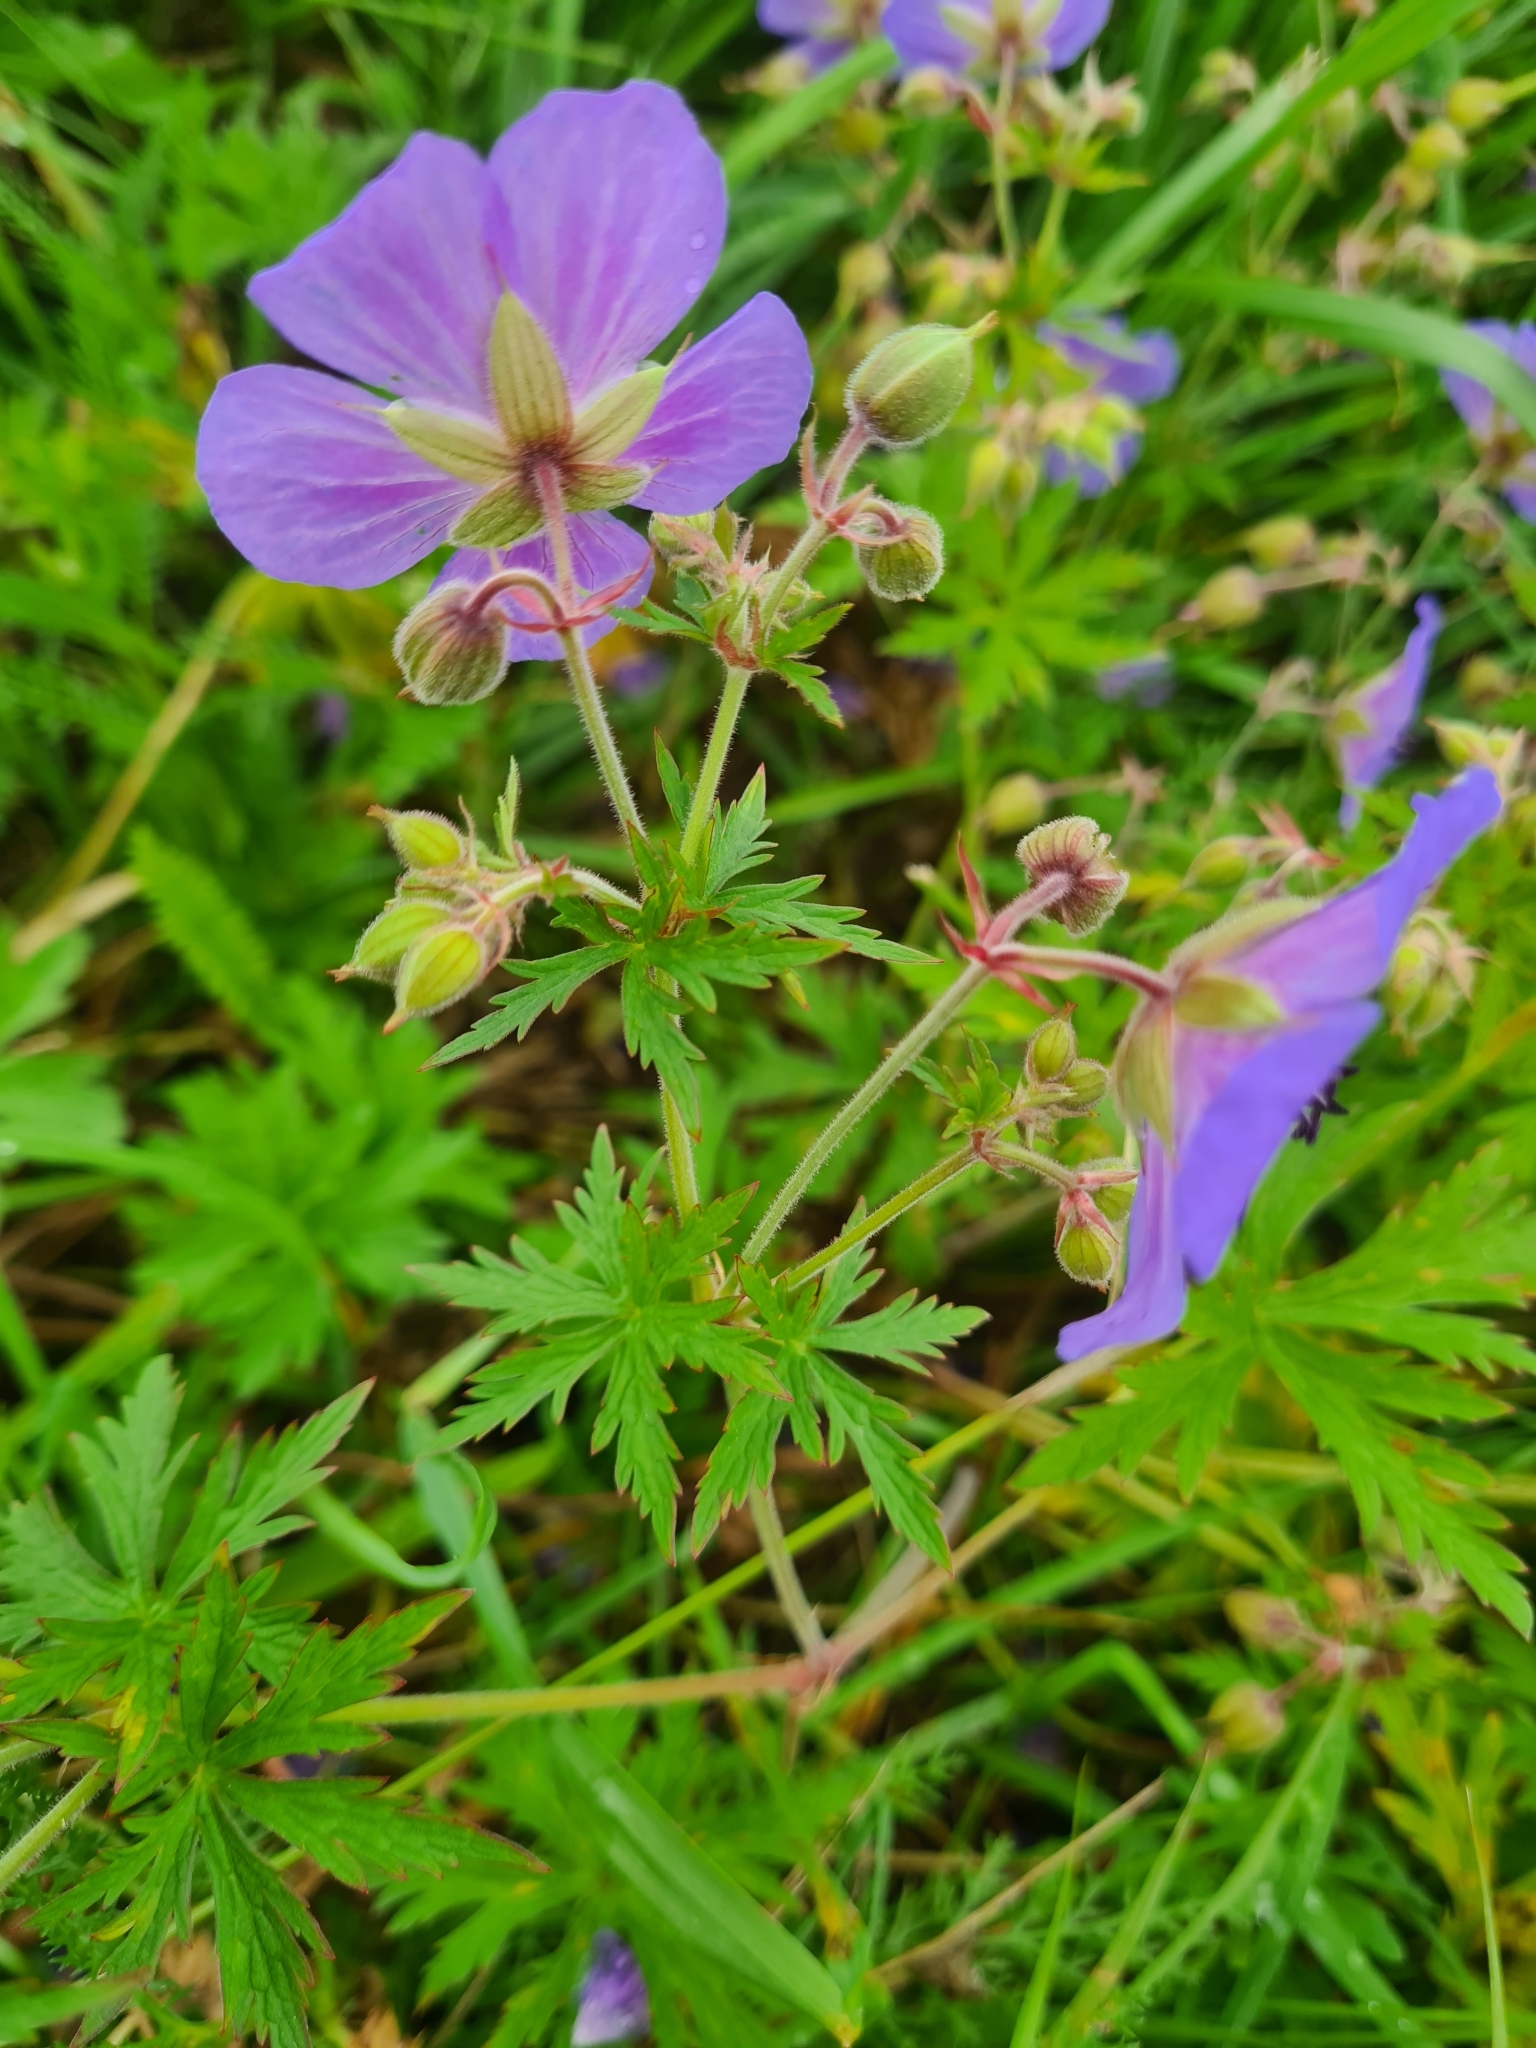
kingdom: Plantae
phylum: Tracheophyta
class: Magnoliopsida
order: Geraniales
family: Geraniaceae
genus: Geranium
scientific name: Geranium pratense
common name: Meadow crane's-bill
